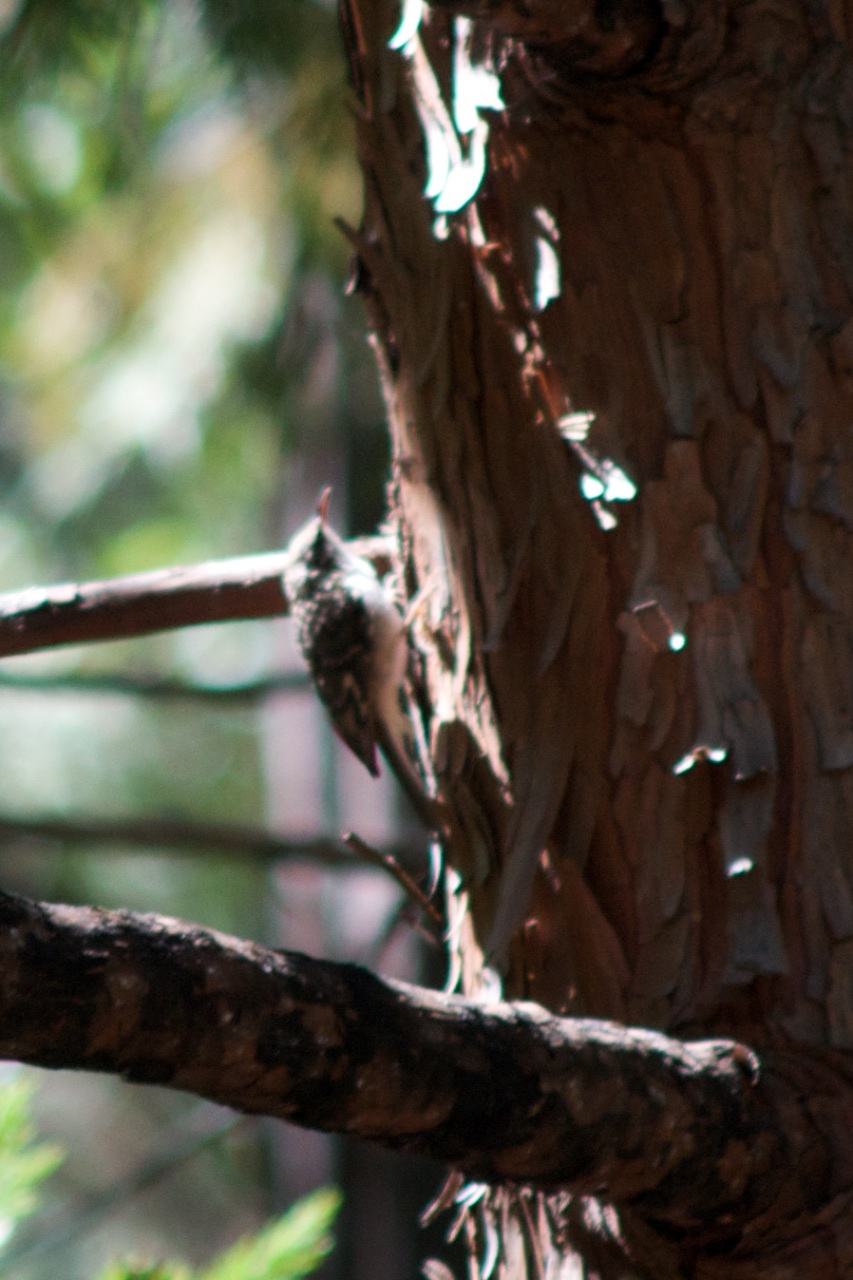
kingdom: Animalia
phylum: Chordata
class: Aves
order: Passeriformes
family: Certhiidae
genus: Certhia
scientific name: Certhia americana
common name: Brown creeper
